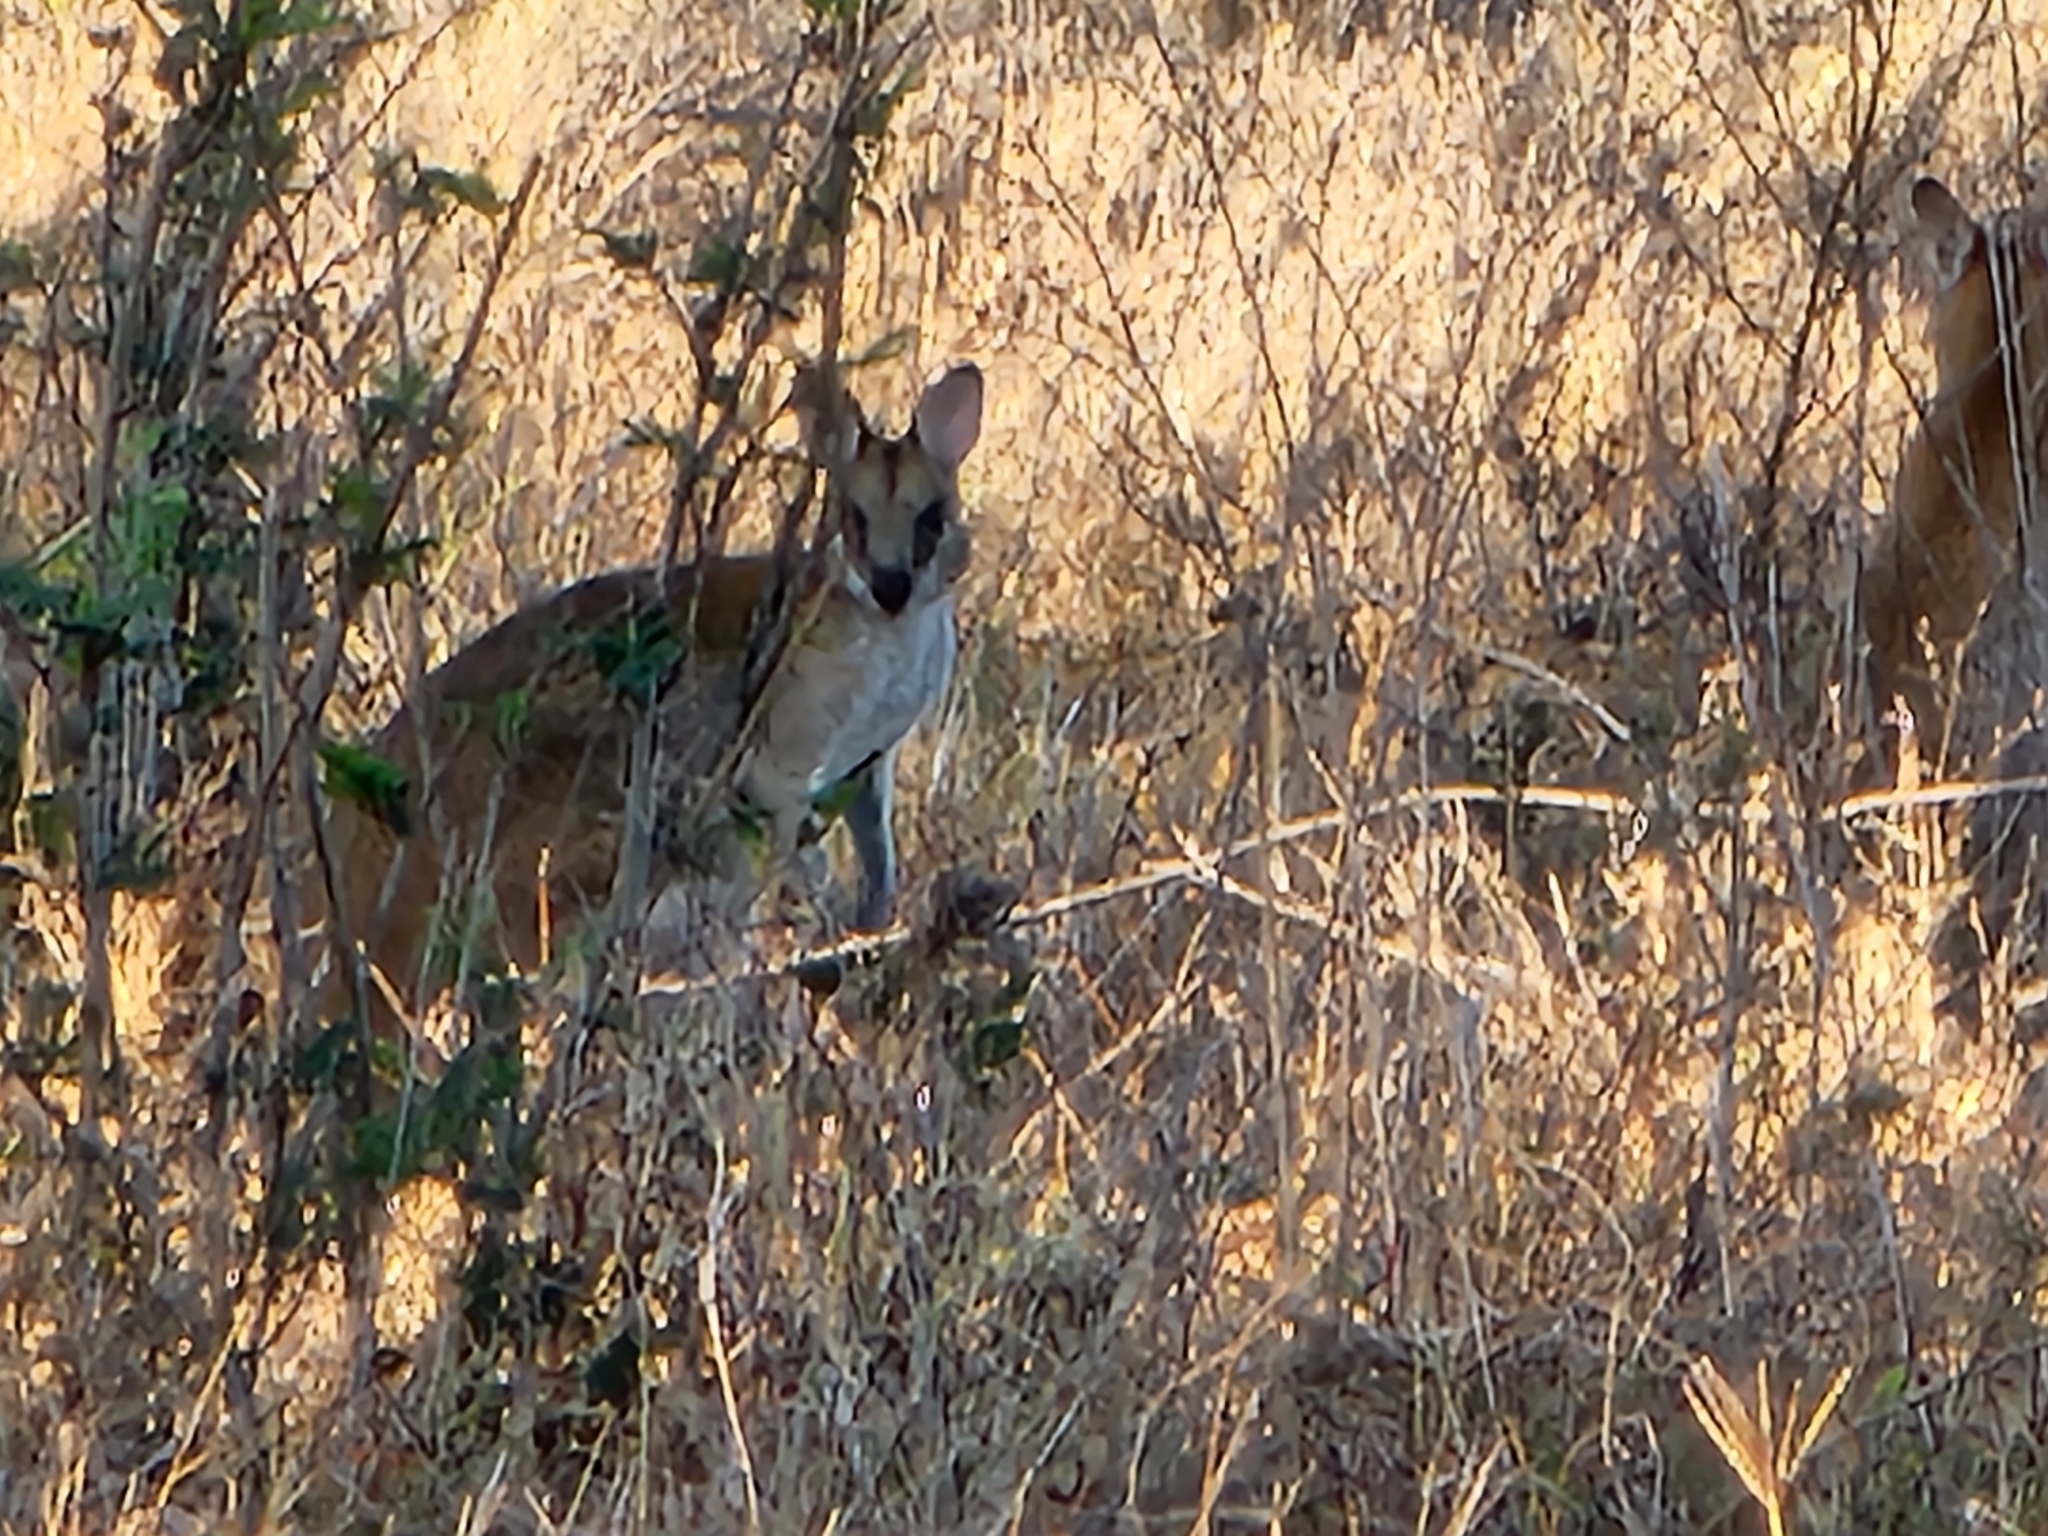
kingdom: Animalia
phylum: Chordata
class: Mammalia
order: Diprotodontia
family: Macropodidae
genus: Macropus
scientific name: Macropus agilis
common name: Agile wallaby
